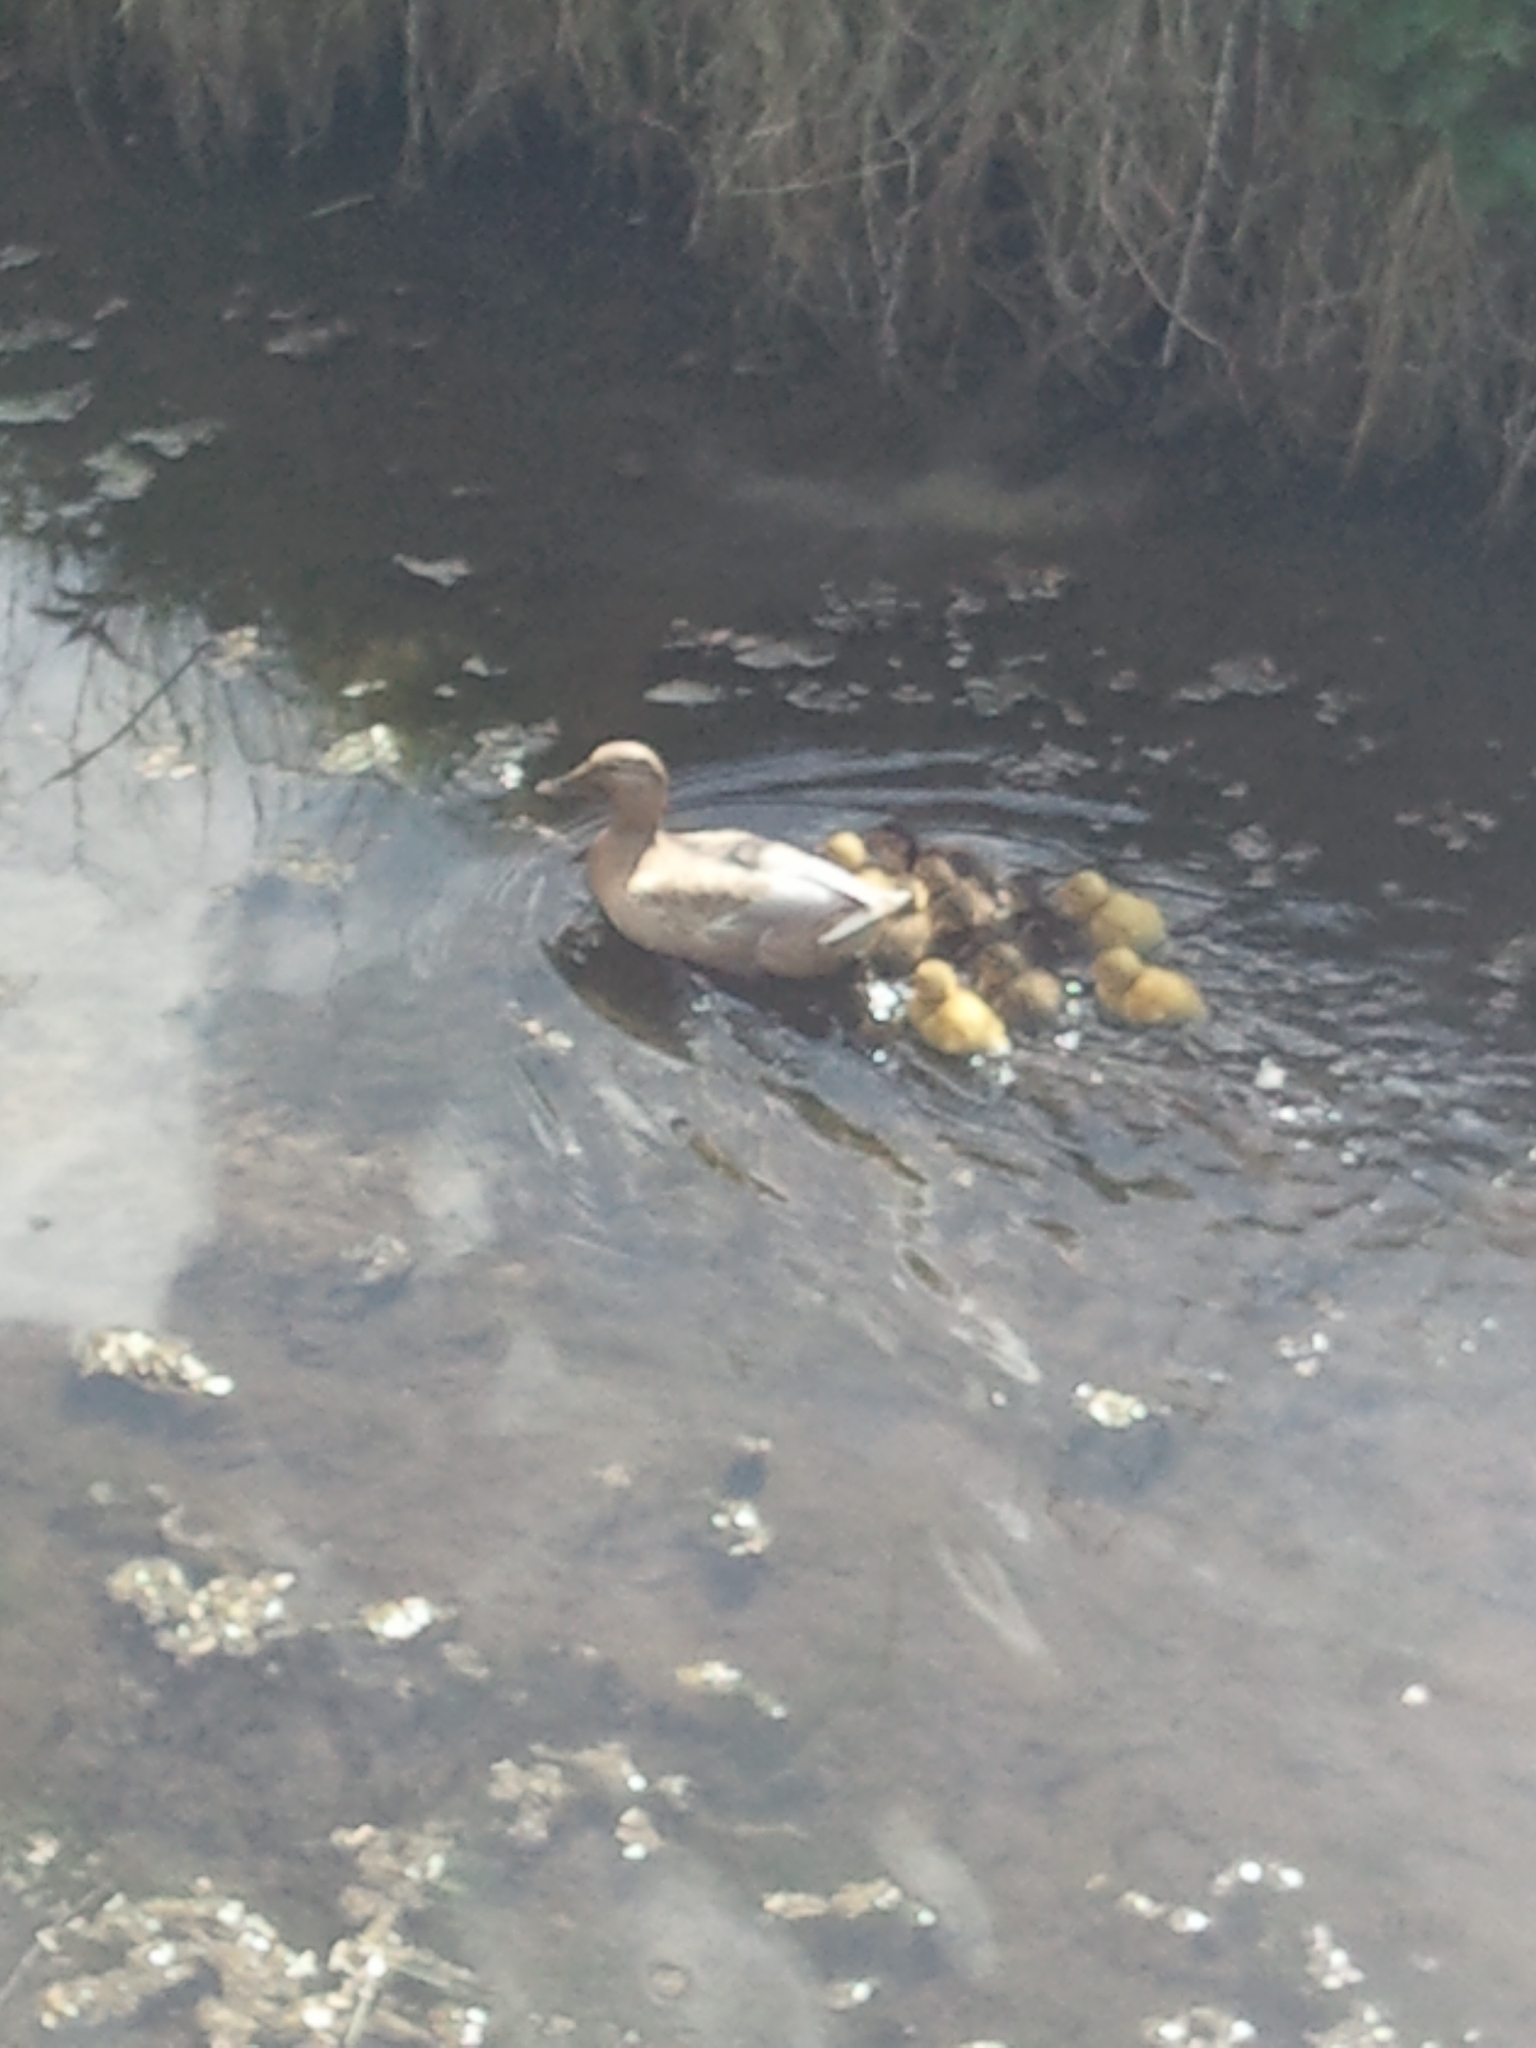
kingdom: Animalia
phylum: Chordata
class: Aves
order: Anseriformes
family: Anatidae
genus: Anas
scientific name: Anas platyrhynchos
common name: Mallard
